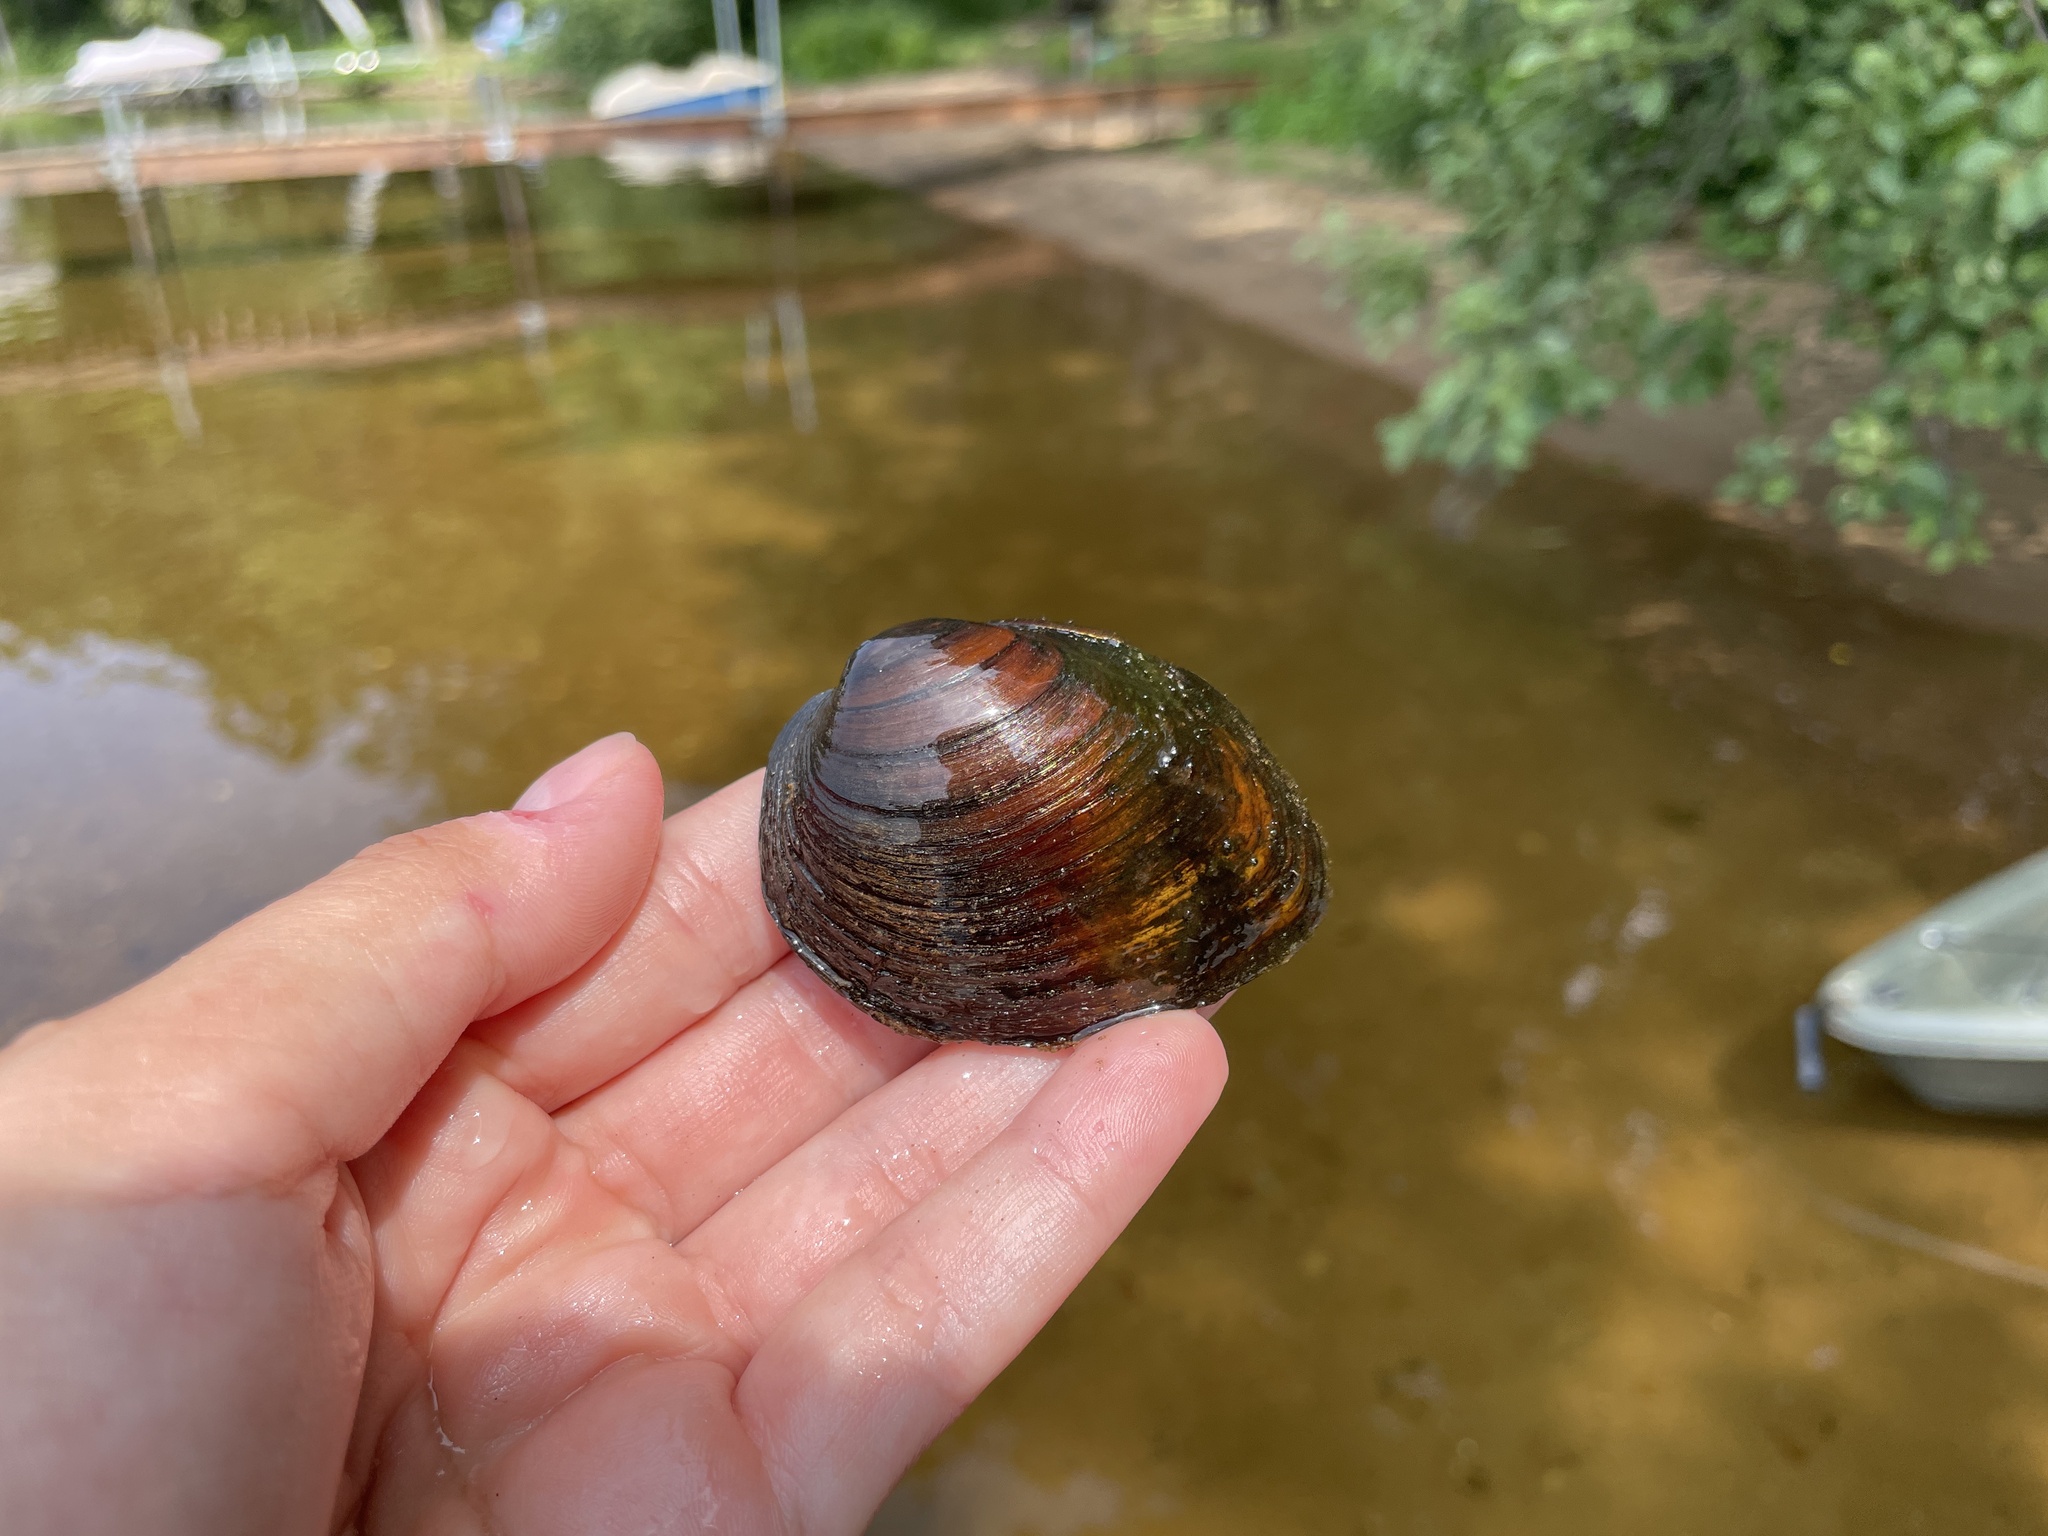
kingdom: Animalia
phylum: Mollusca
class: Bivalvia
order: Unionida
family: Unionidae
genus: Pleurobema
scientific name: Pleurobema sintoxia
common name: Round pigtoe
